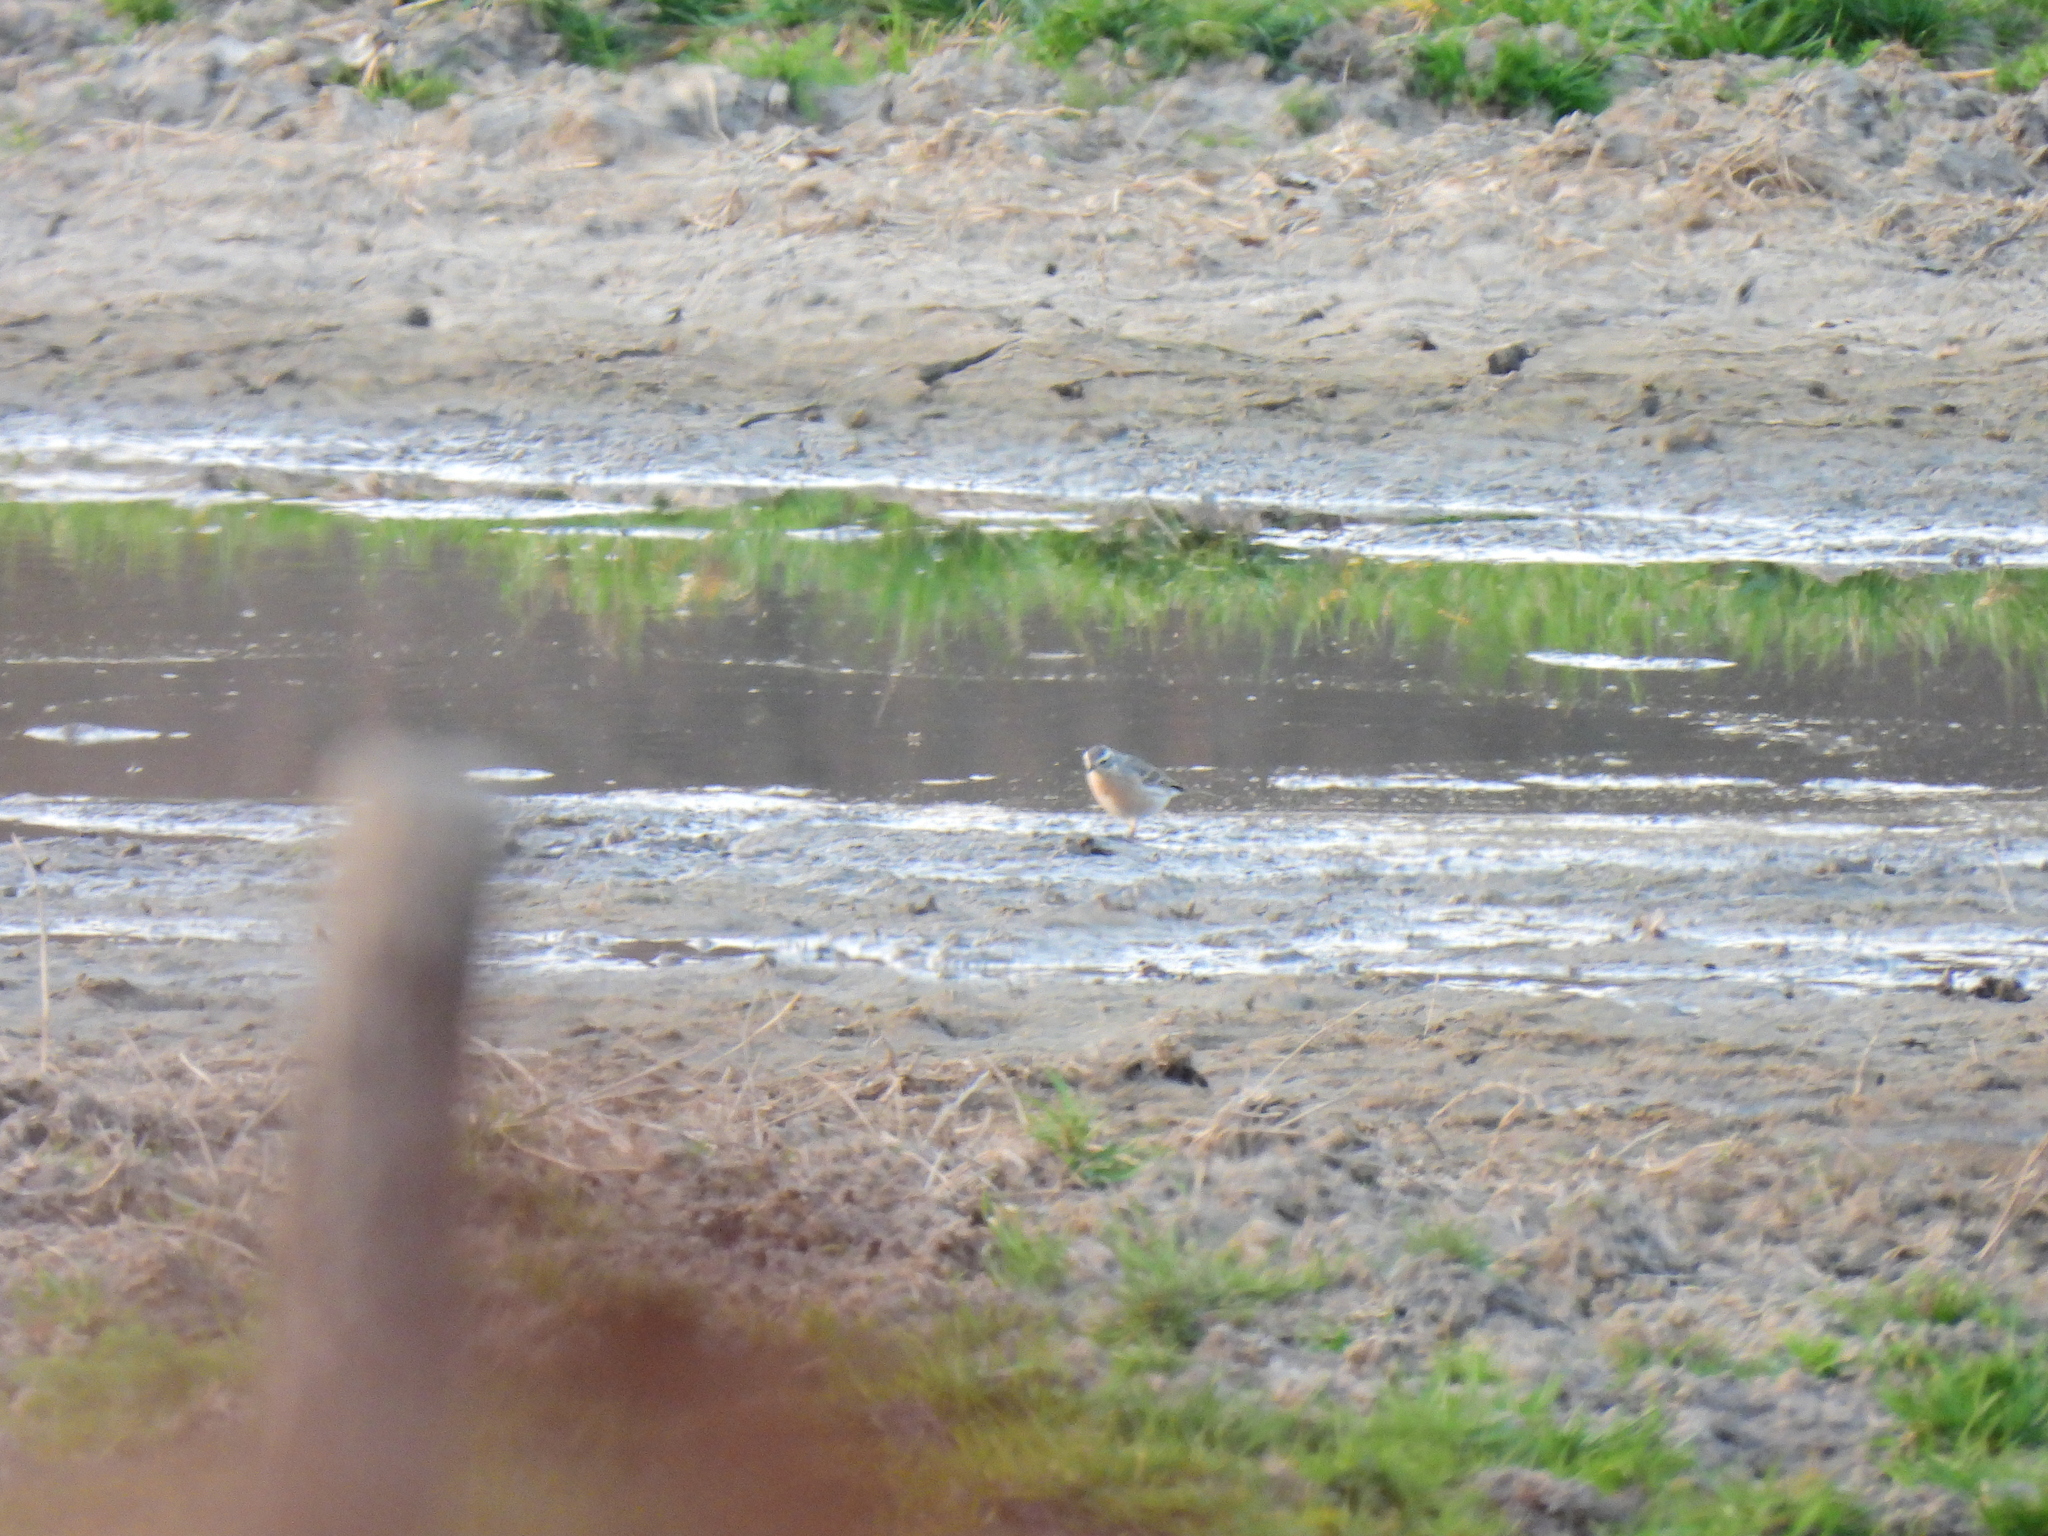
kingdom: Animalia
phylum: Chordata
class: Aves
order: Passeriformes
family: Motacillidae
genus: Anthus
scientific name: Anthus spinoletta
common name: Water pipit
